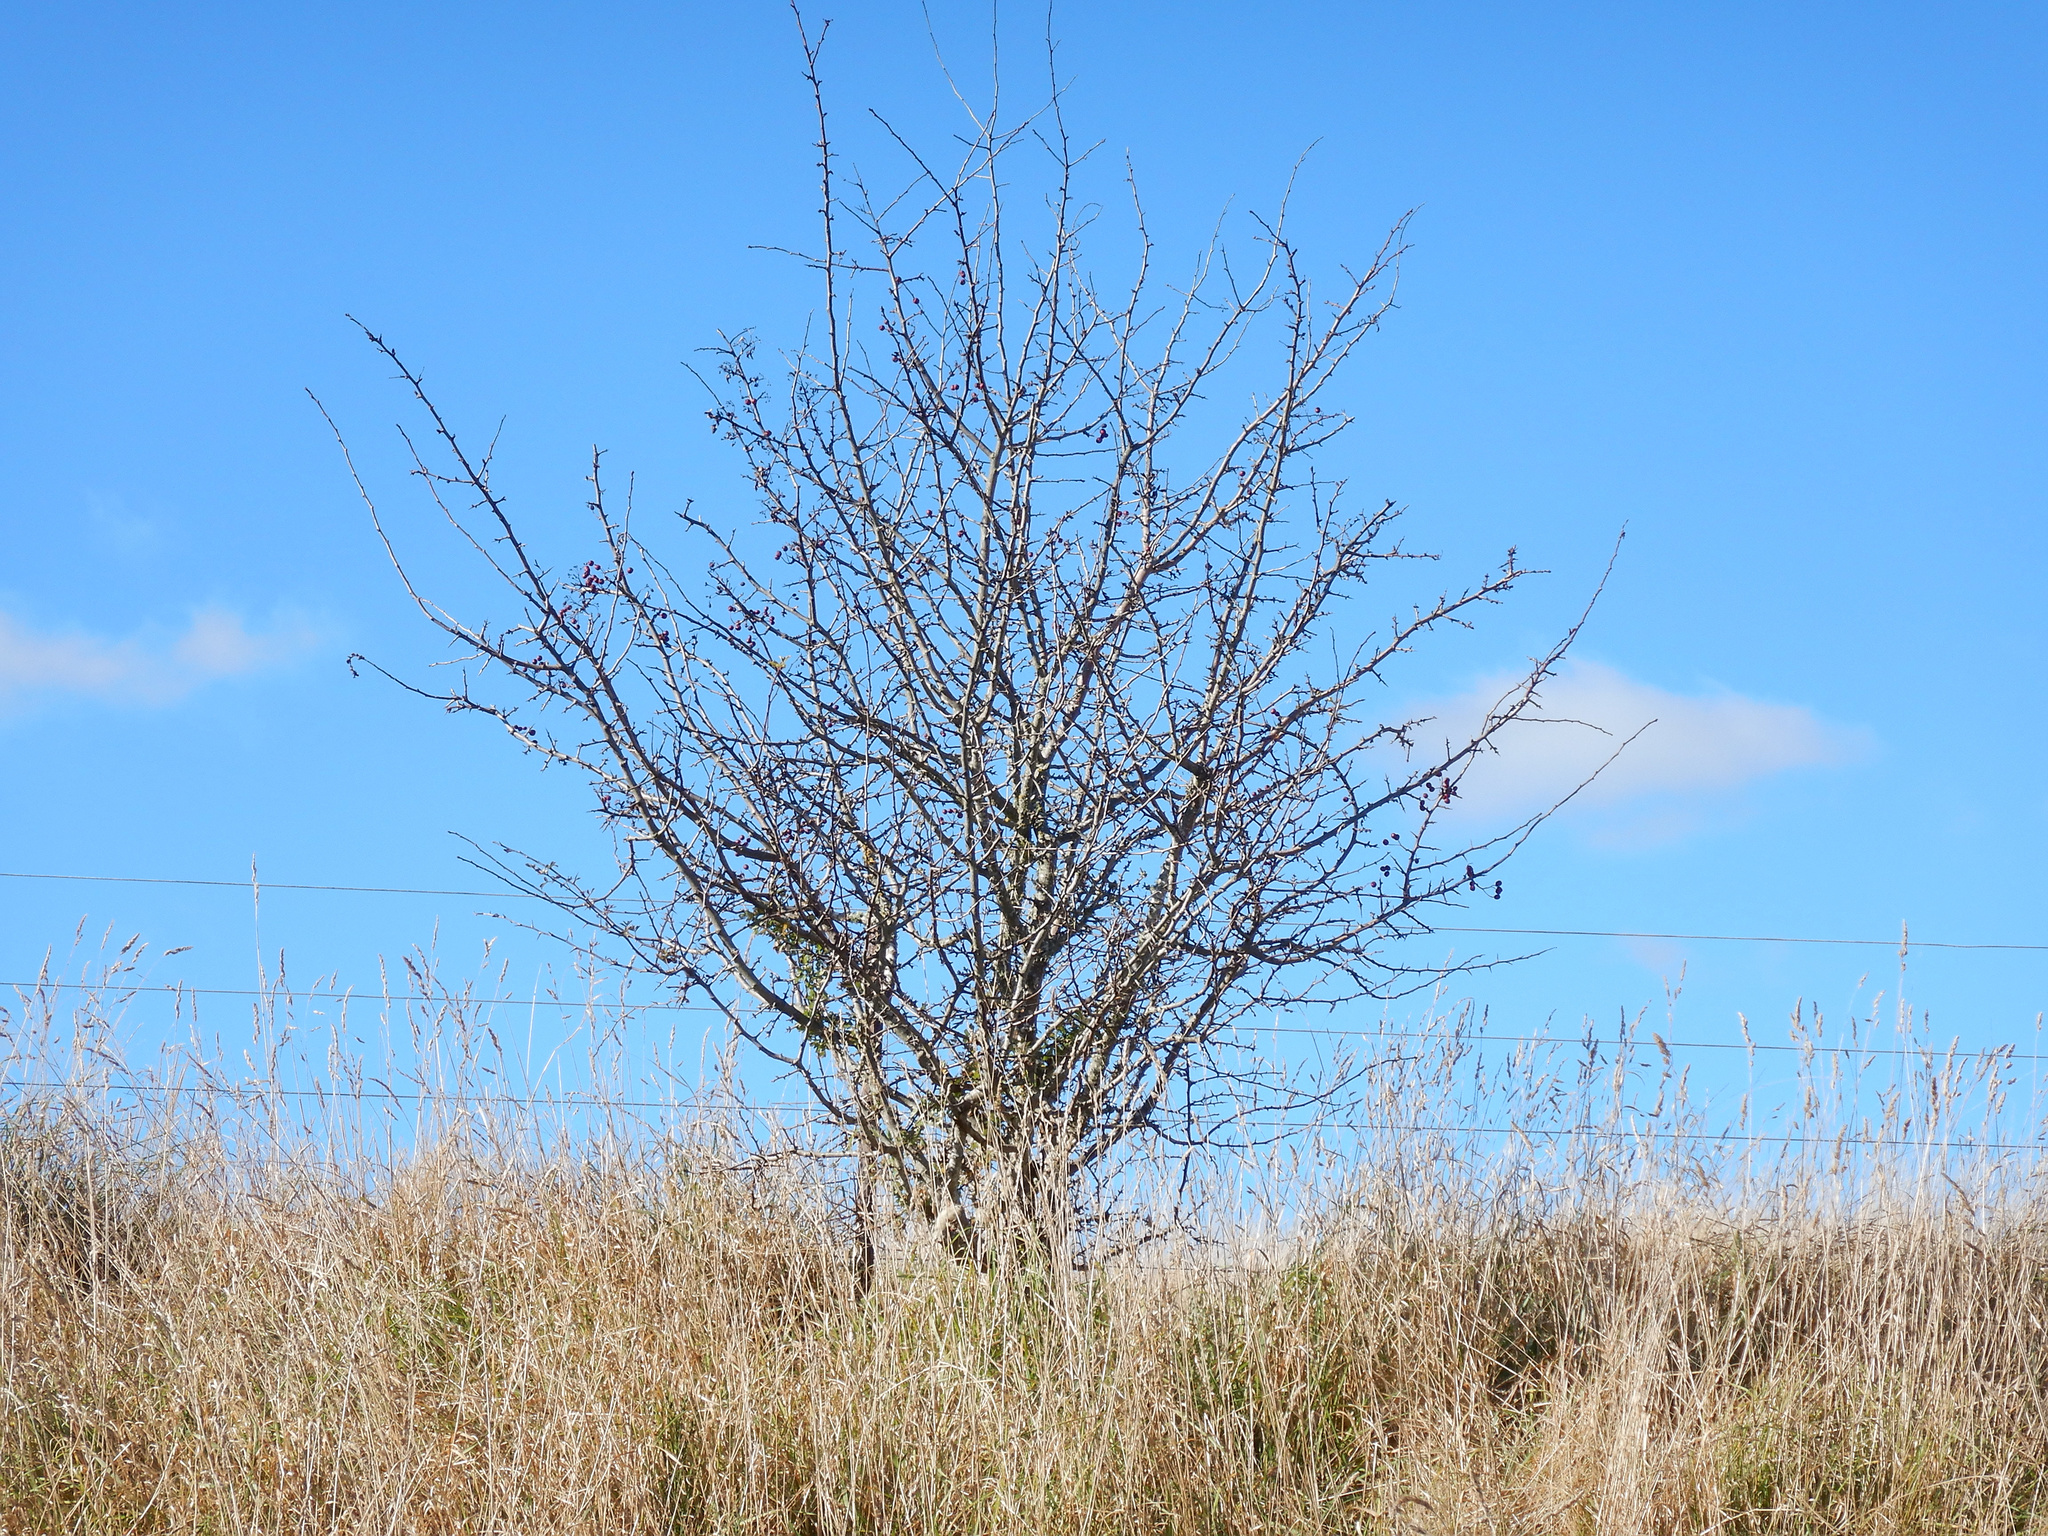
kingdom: Plantae
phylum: Tracheophyta
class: Magnoliopsida
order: Rosales
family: Rosaceae
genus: Crataegus
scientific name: Crataegus monogyna
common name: Hawthorn
